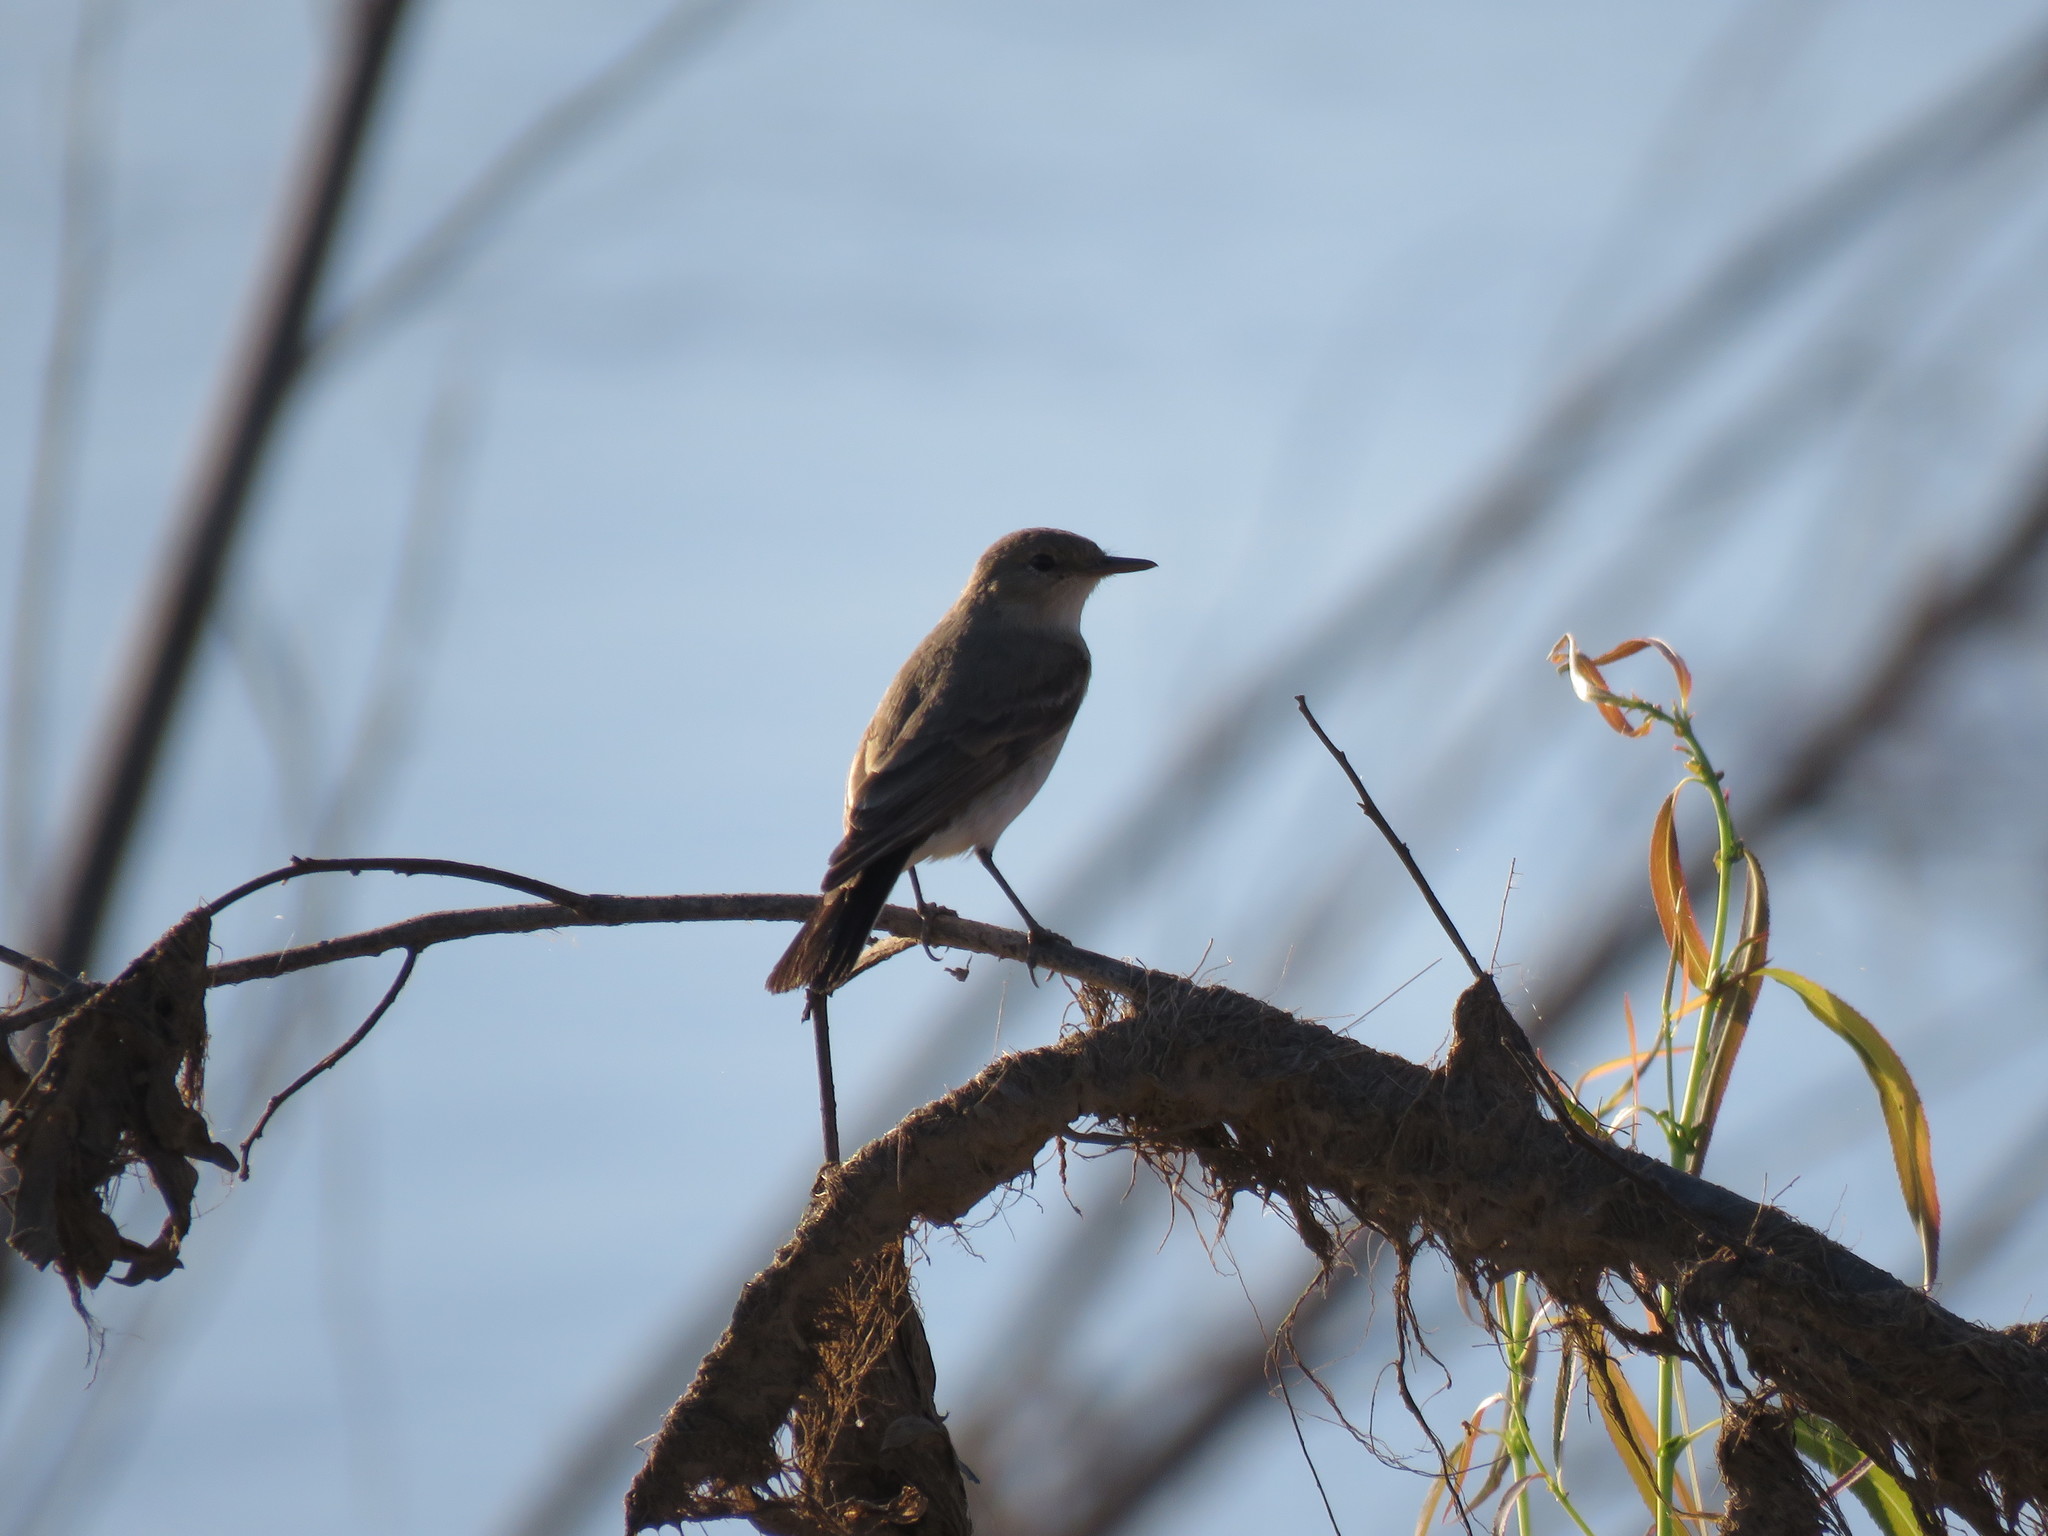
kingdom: Animalia
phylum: Chordata
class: Aves
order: Passeriformes
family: Tyrannidae
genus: Muscisaxicola
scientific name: Muscisaxicola fluviatilis
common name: Little ground tyrant
